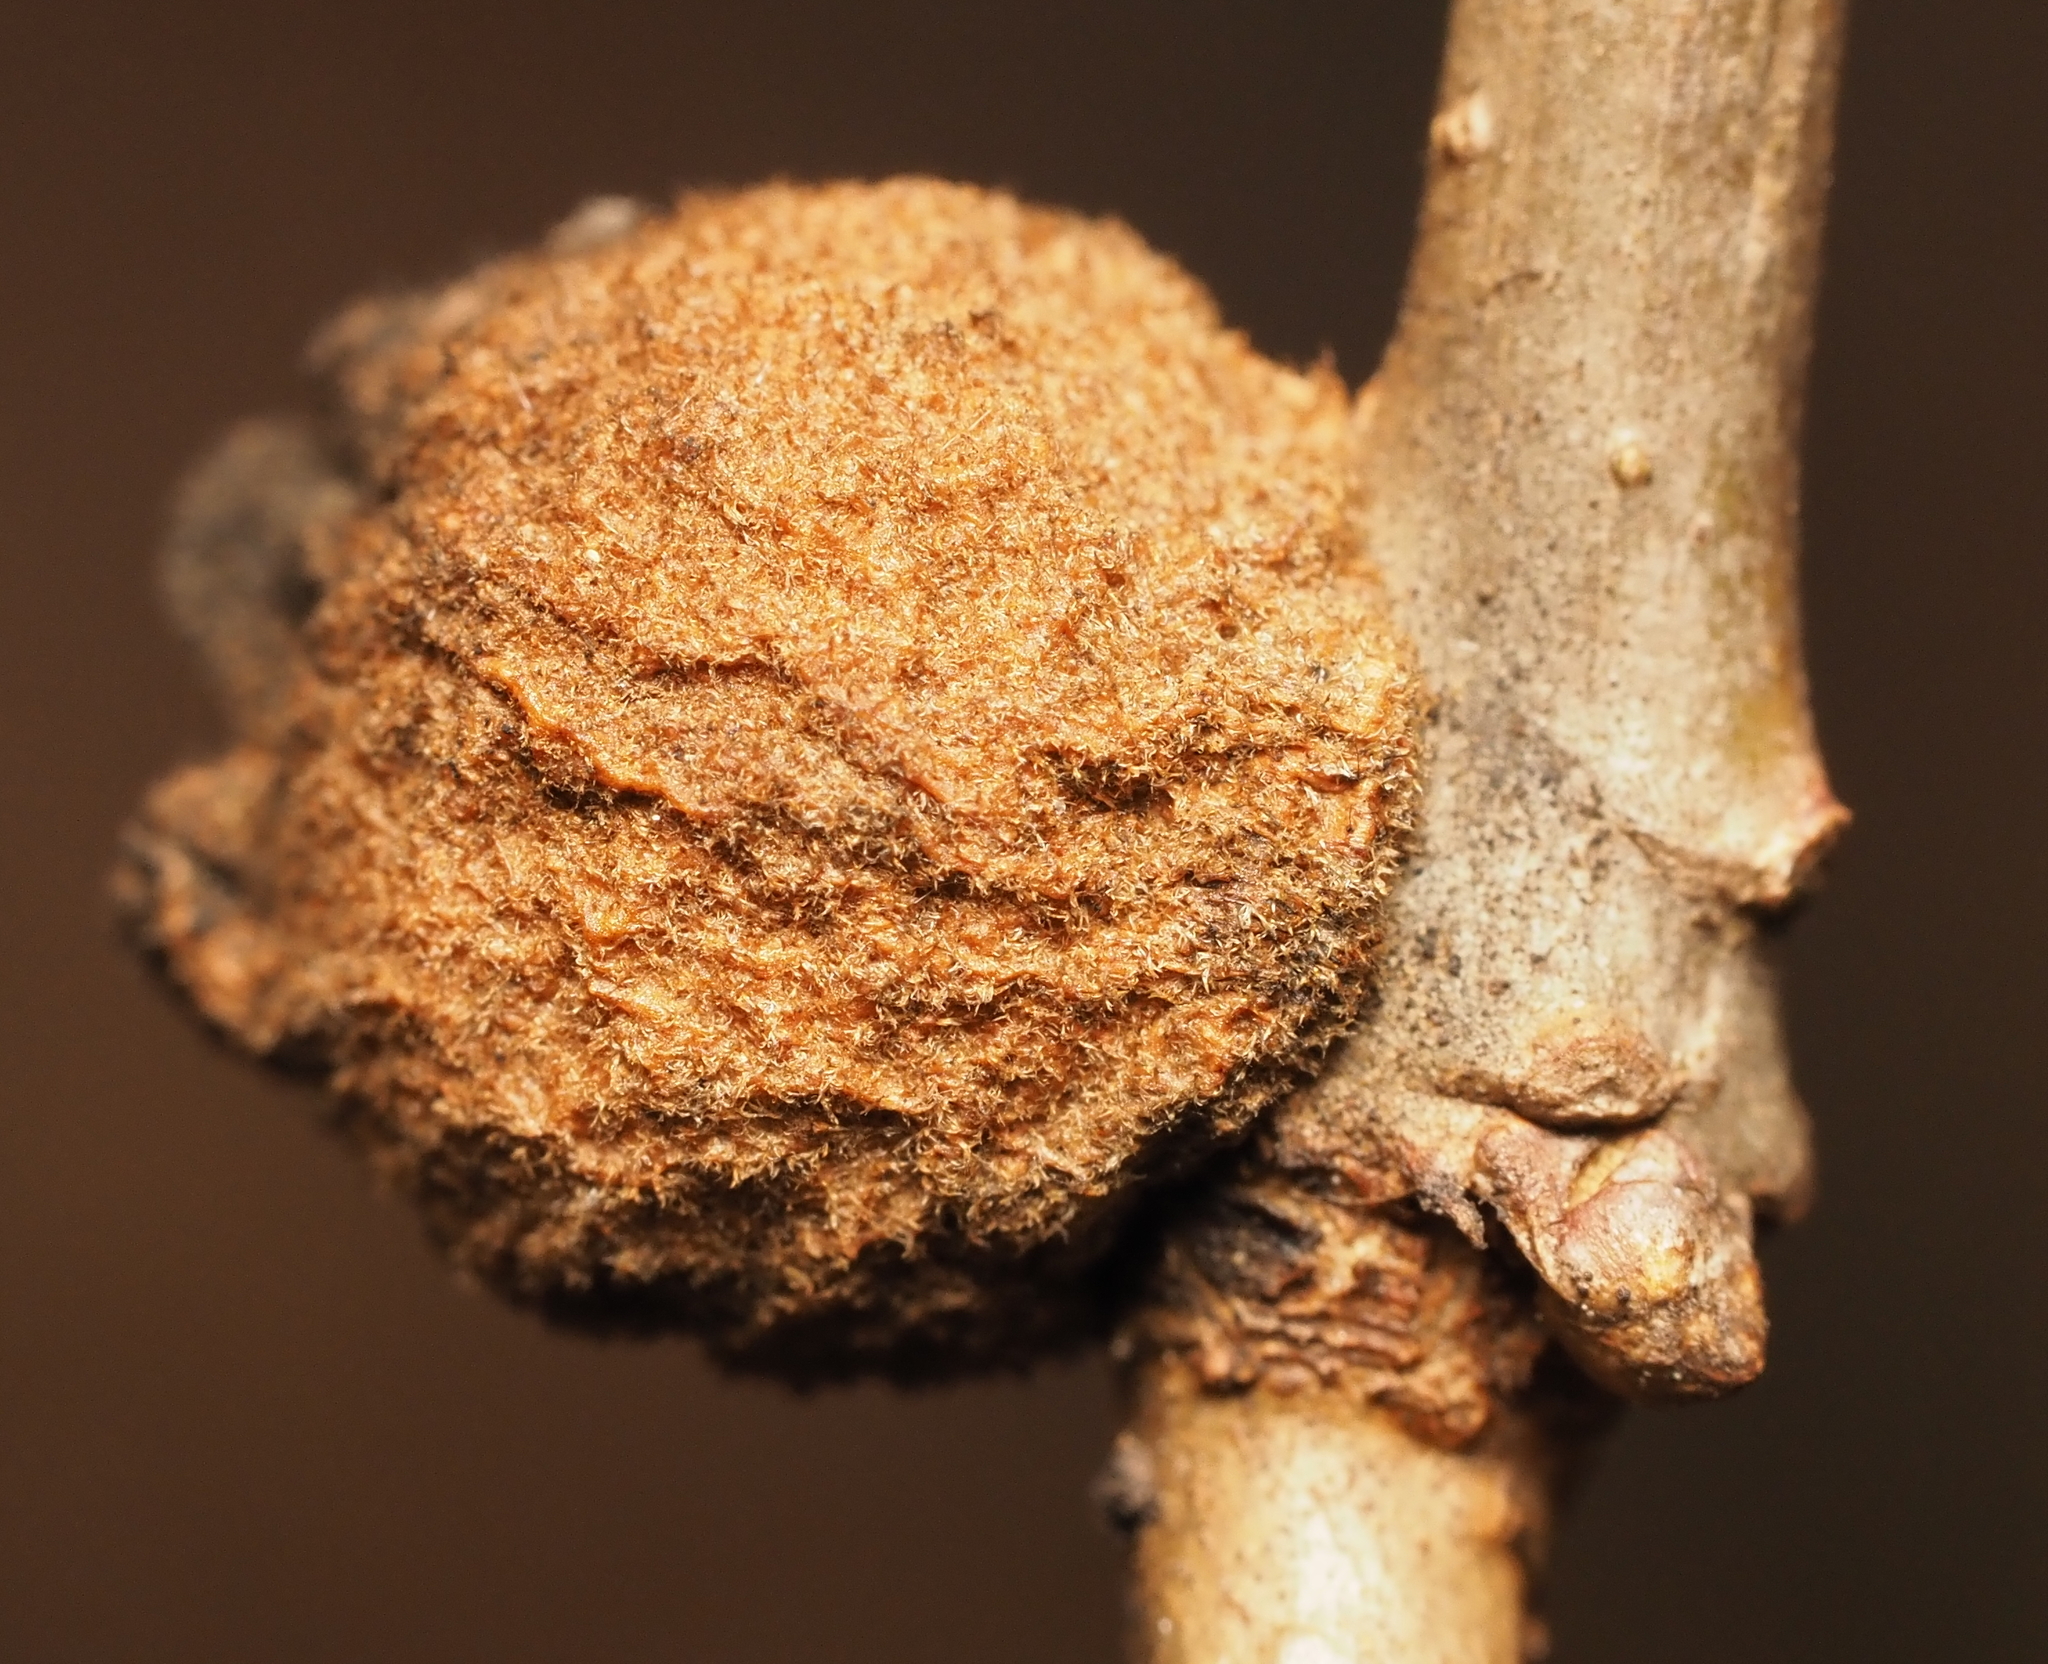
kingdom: Animalia
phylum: Arthropoda
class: Insecta
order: Hymenoptera
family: Cynipidae
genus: Disholcaspis
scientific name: Disholcaspis
